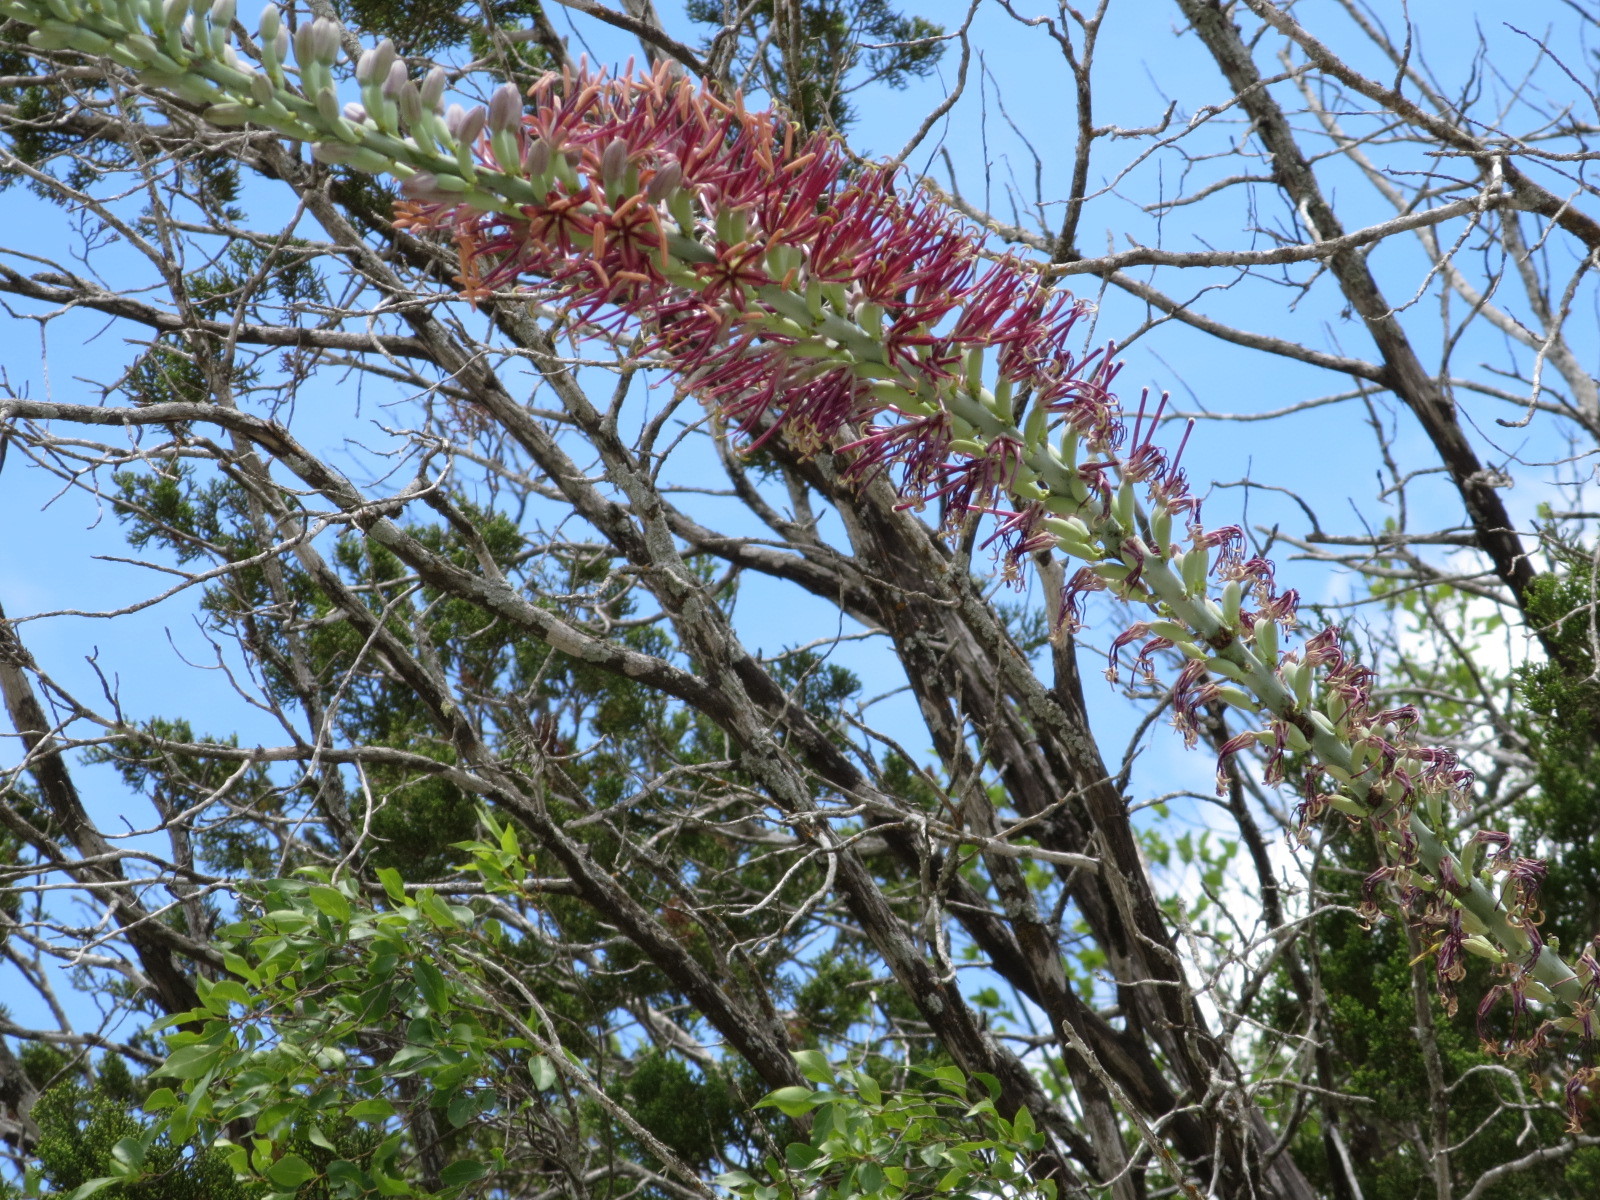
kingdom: Plantae
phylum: Tracheophyta
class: Liliopsida
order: Asparagales
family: Asparagaceae
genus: Agave
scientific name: Agave lechuguilla
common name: Lecheguilla agave
